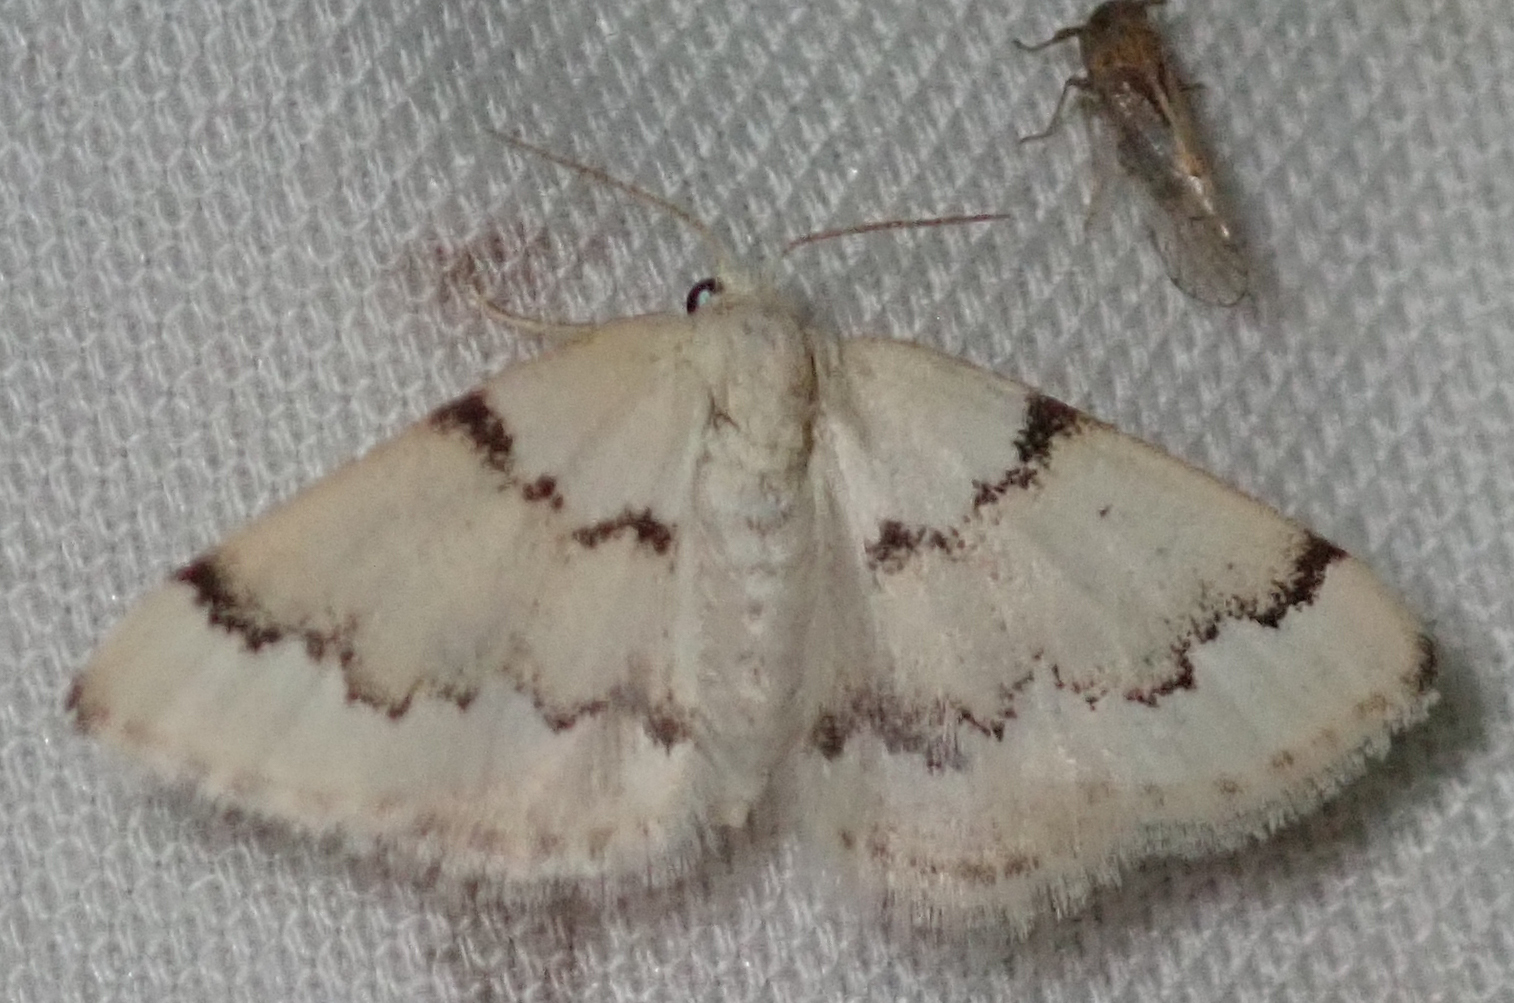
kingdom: Animalia
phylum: Arthropoda
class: Insecta
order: Lepidoptera
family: Geometridae
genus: Acidaliastis
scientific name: Acidaliastis prophanes
